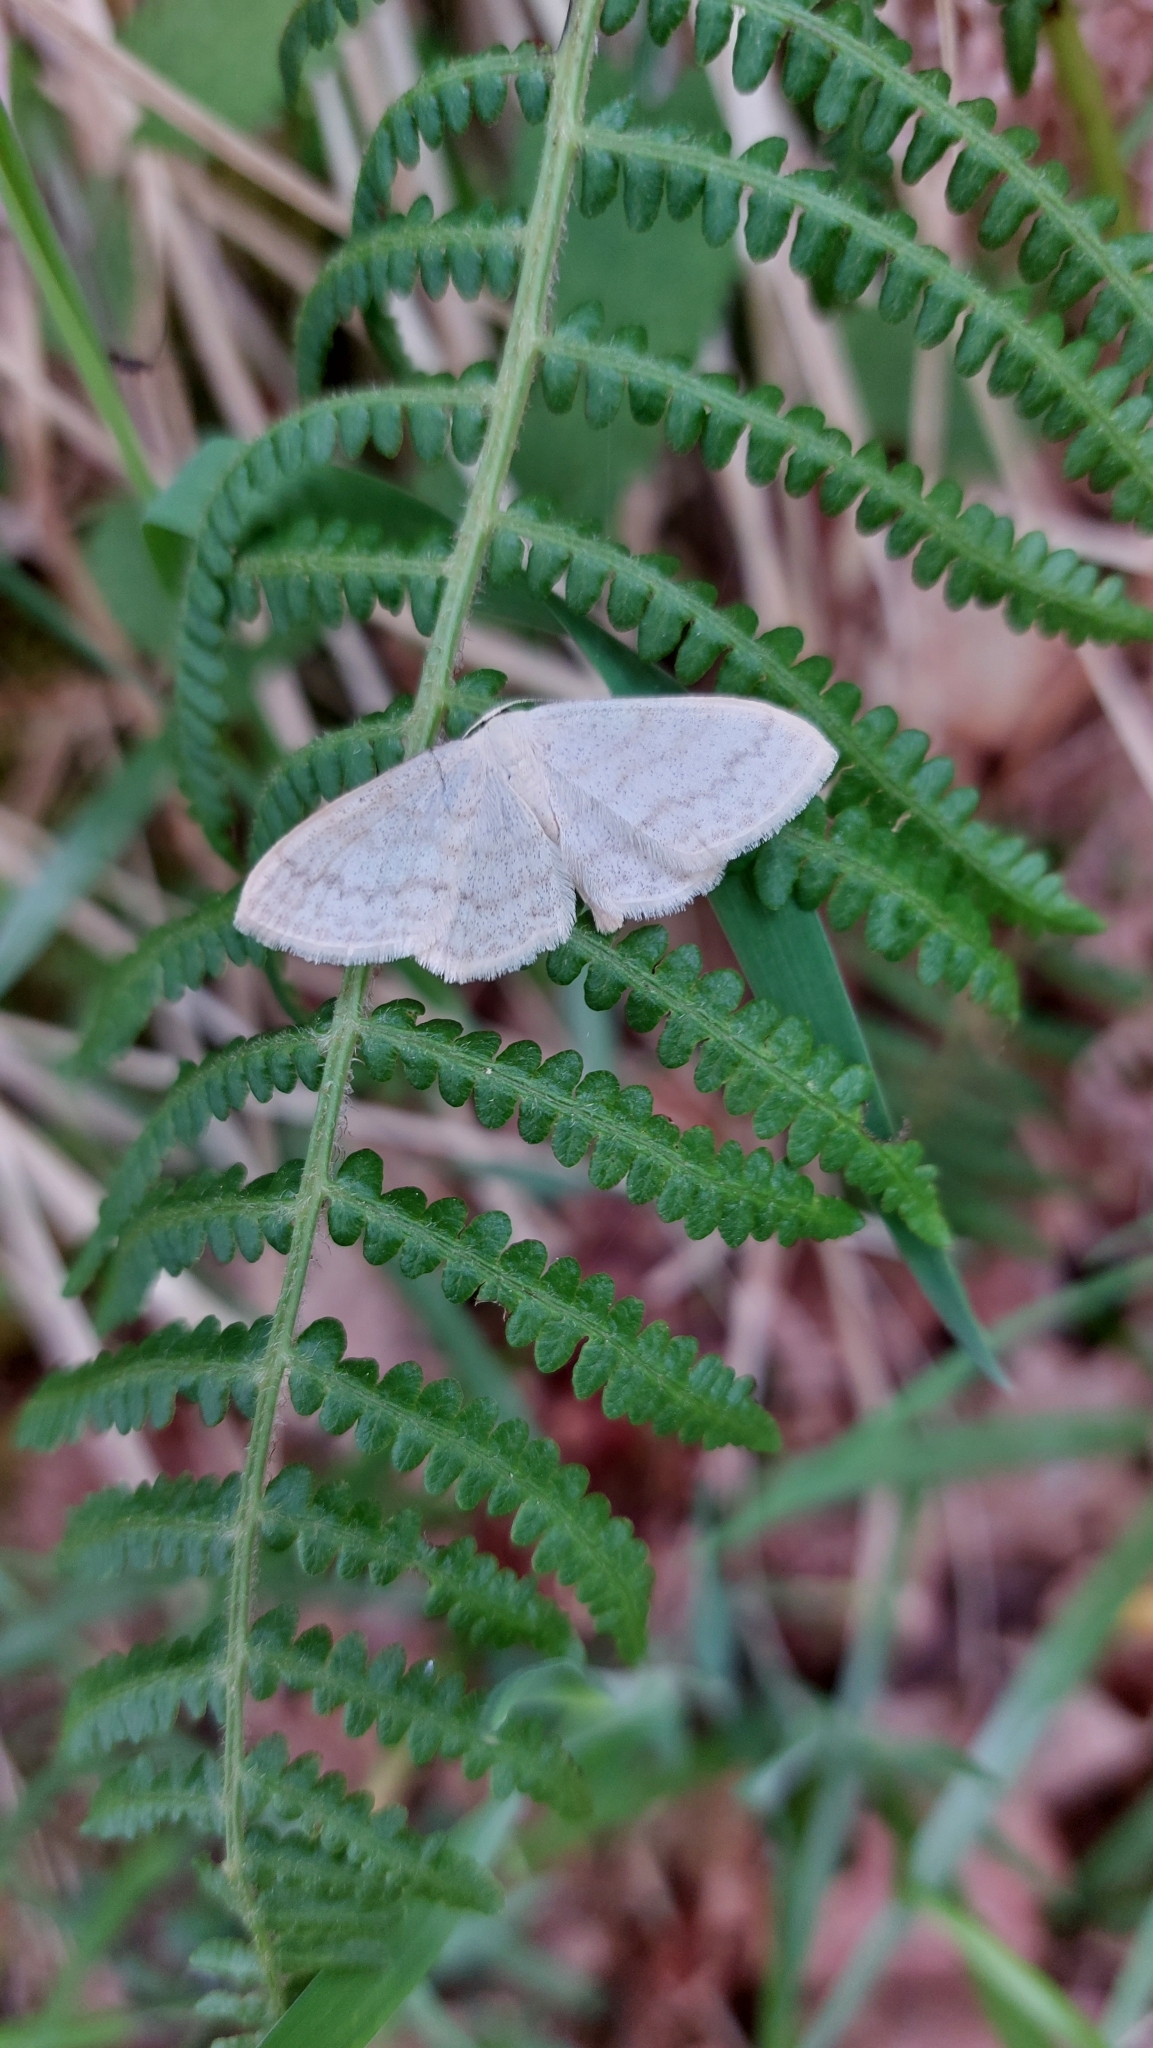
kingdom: Animalia
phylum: Arthropoda
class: Insecta
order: Lepidoptera
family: Geometridae
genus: Scopula
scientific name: Scopula floslactata
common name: Cream wave
